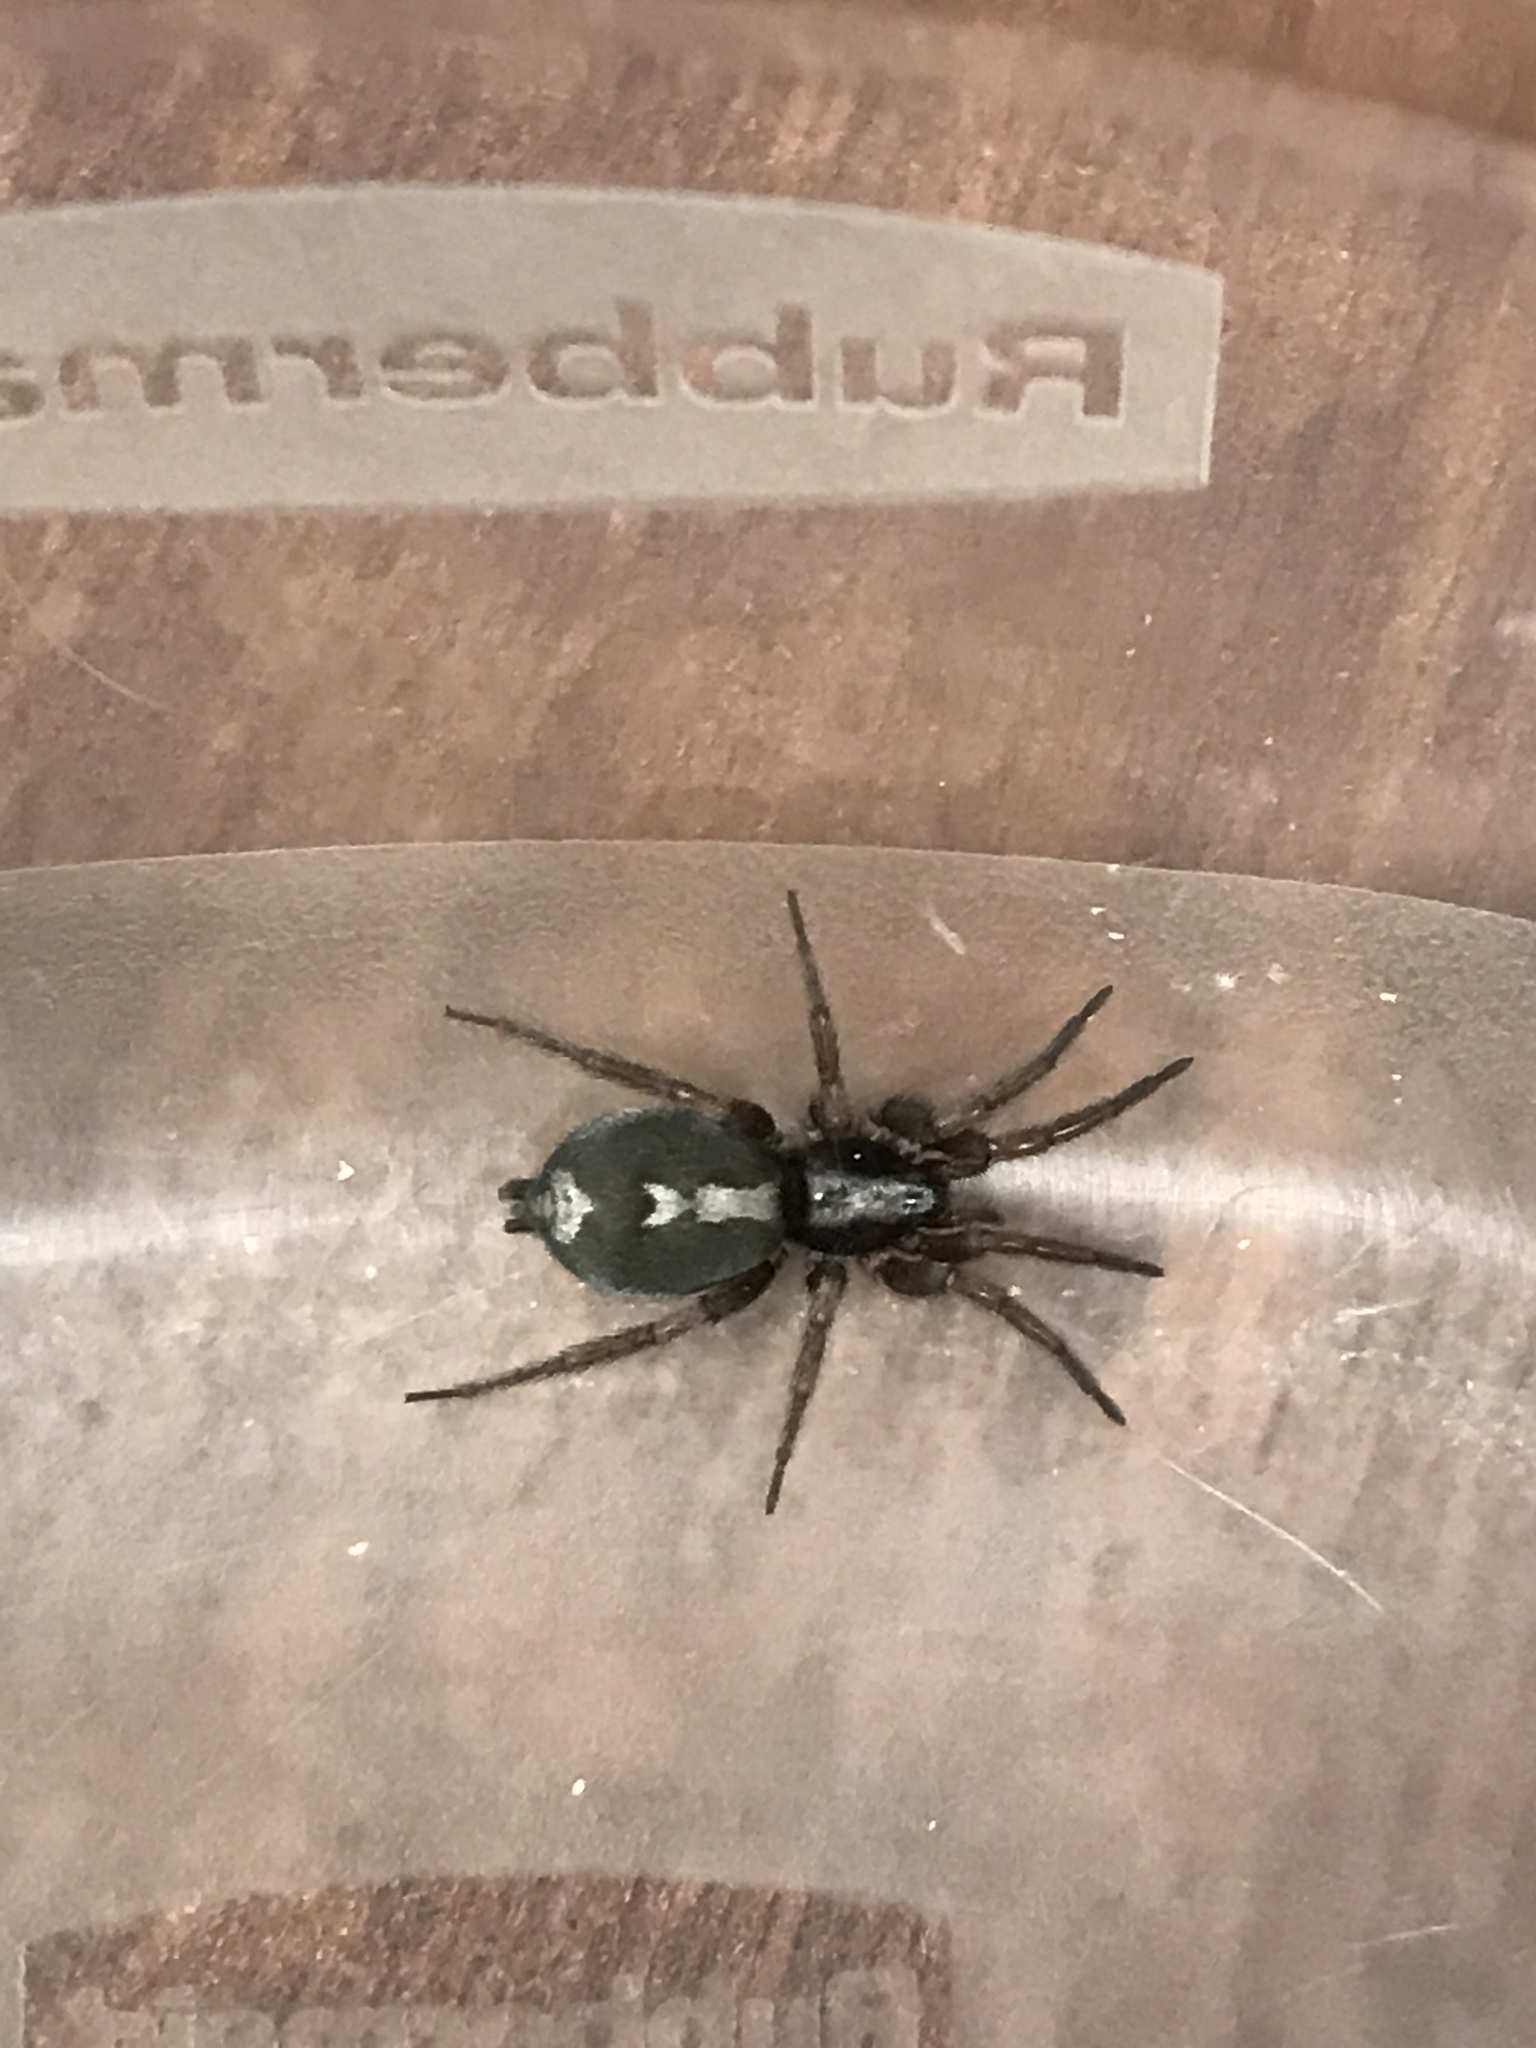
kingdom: Animalia
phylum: Arthropoda
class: Arachnida
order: Araneae
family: Gnaphosidae
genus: Herpyllus
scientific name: Herpyllus ecclesiasticus
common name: Eastern parson spider
